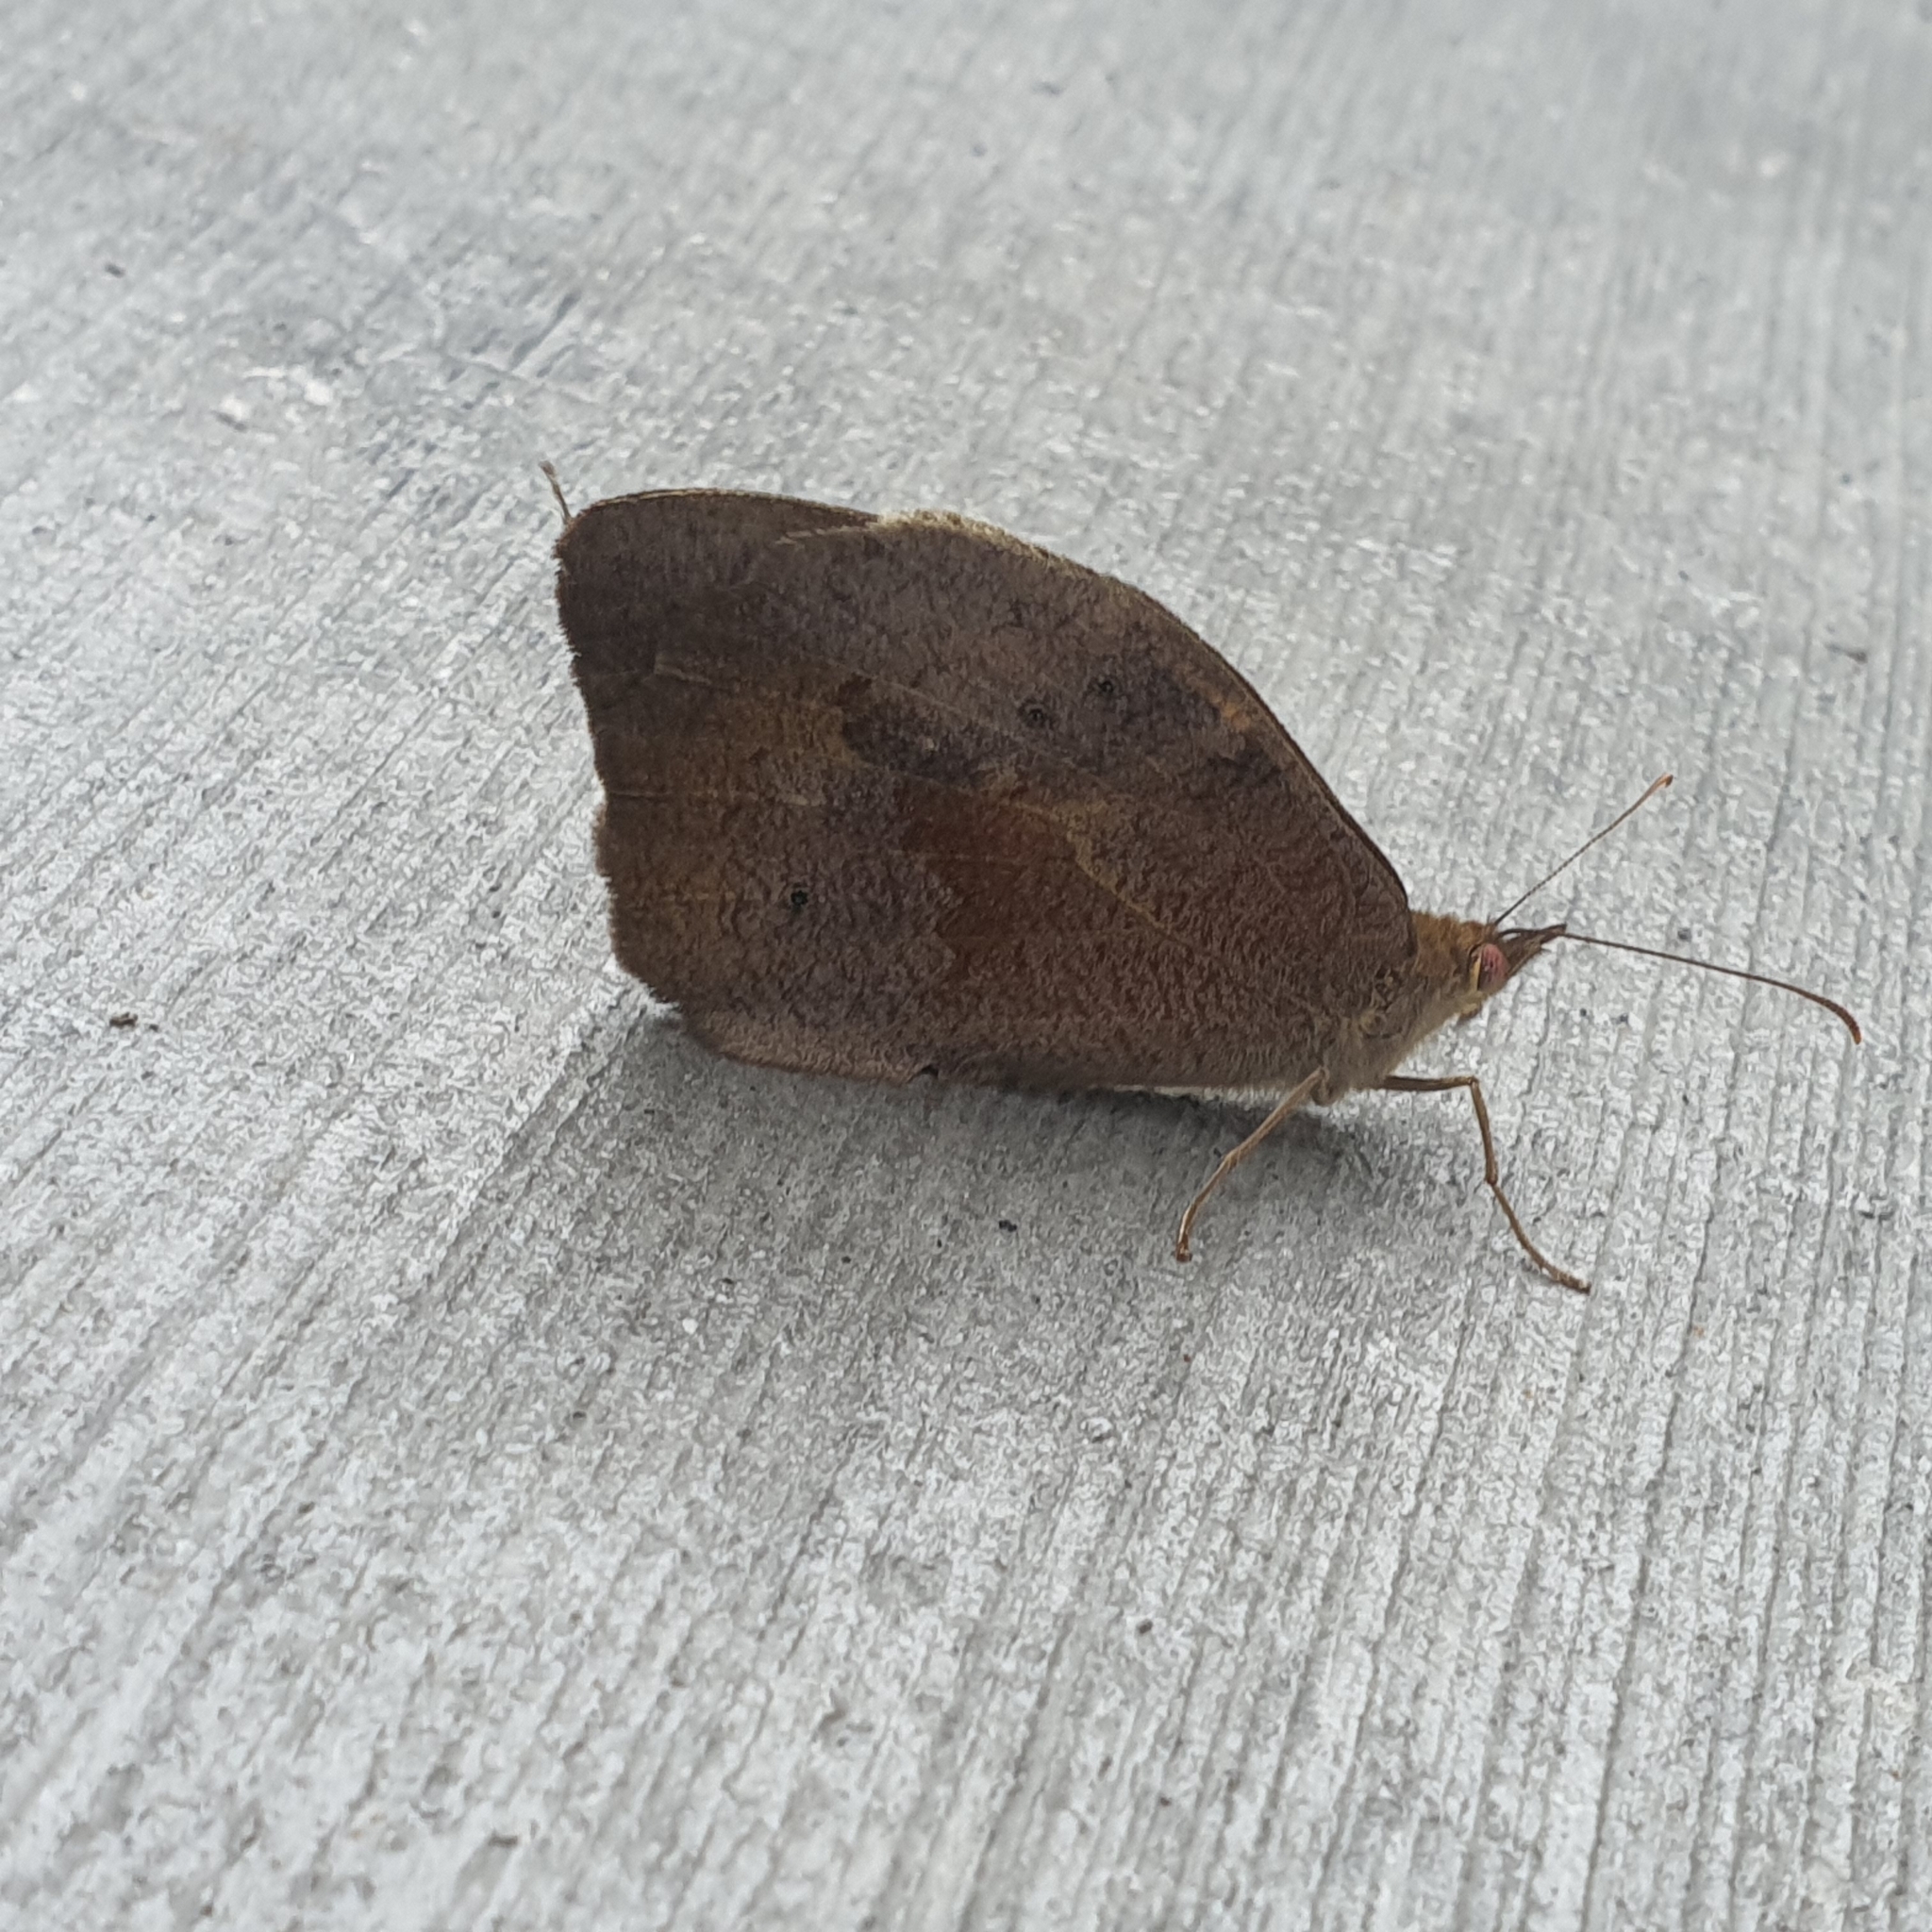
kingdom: Animalia
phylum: Arthropoda
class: Insecta
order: Lepidoptera
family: Nymphalidae
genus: Heteronympha
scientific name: Heteronympha merope
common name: Common brown
